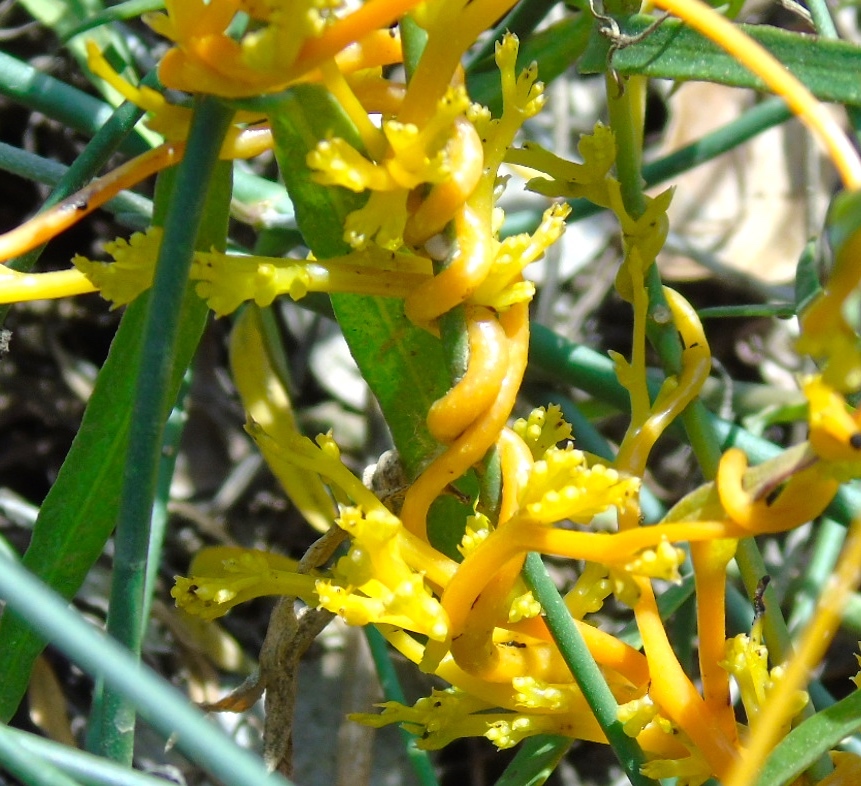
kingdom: Plantae
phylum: Tracheophyta
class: Magnoliopsida
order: Solanales
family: Convolvulaceae
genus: Cuscuta
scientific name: Cuscuta
